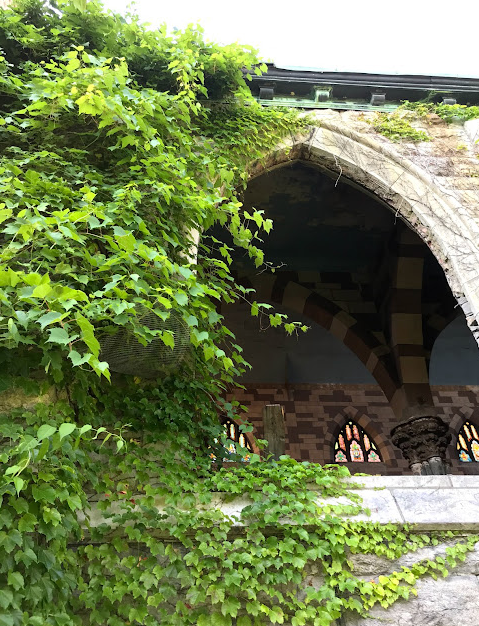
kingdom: Plantae
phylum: Tracheophyta
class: Magnoliopsida
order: Vitales
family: Vitaceae
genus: Parthenocissus
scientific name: Parthenocissus tricuspidata
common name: Boston ivy
